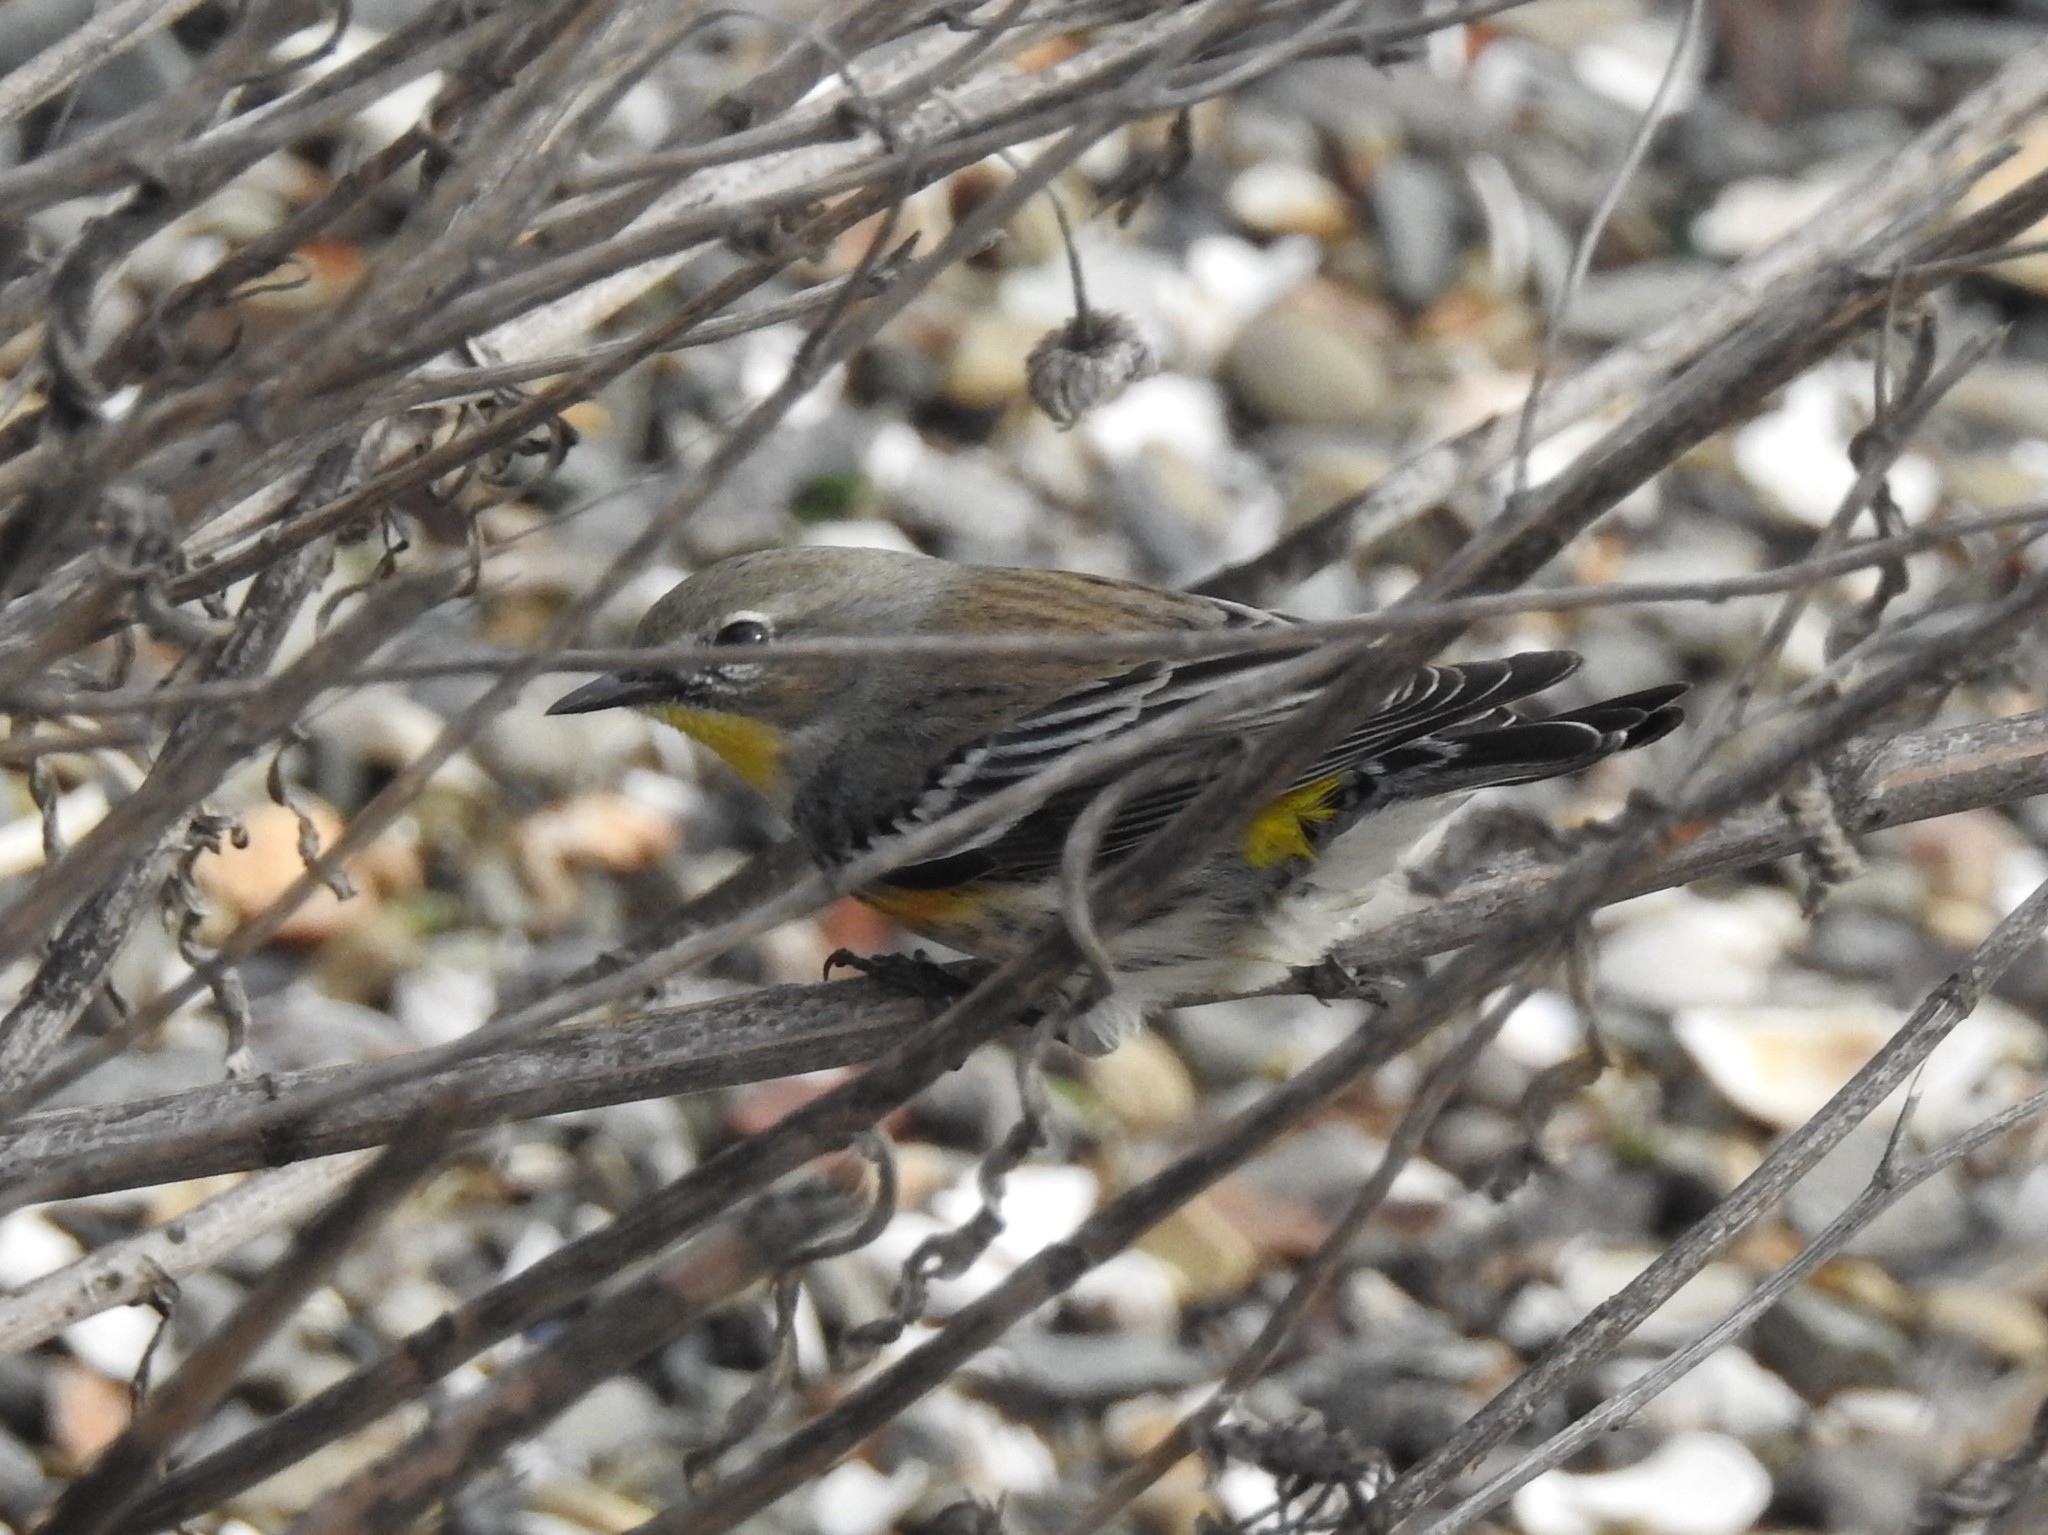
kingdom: Animalia
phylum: Chordata
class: Aves
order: Passeriformes
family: Parulidae
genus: Setophaga
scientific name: Setophaga coronata
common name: Myrtle warbler
